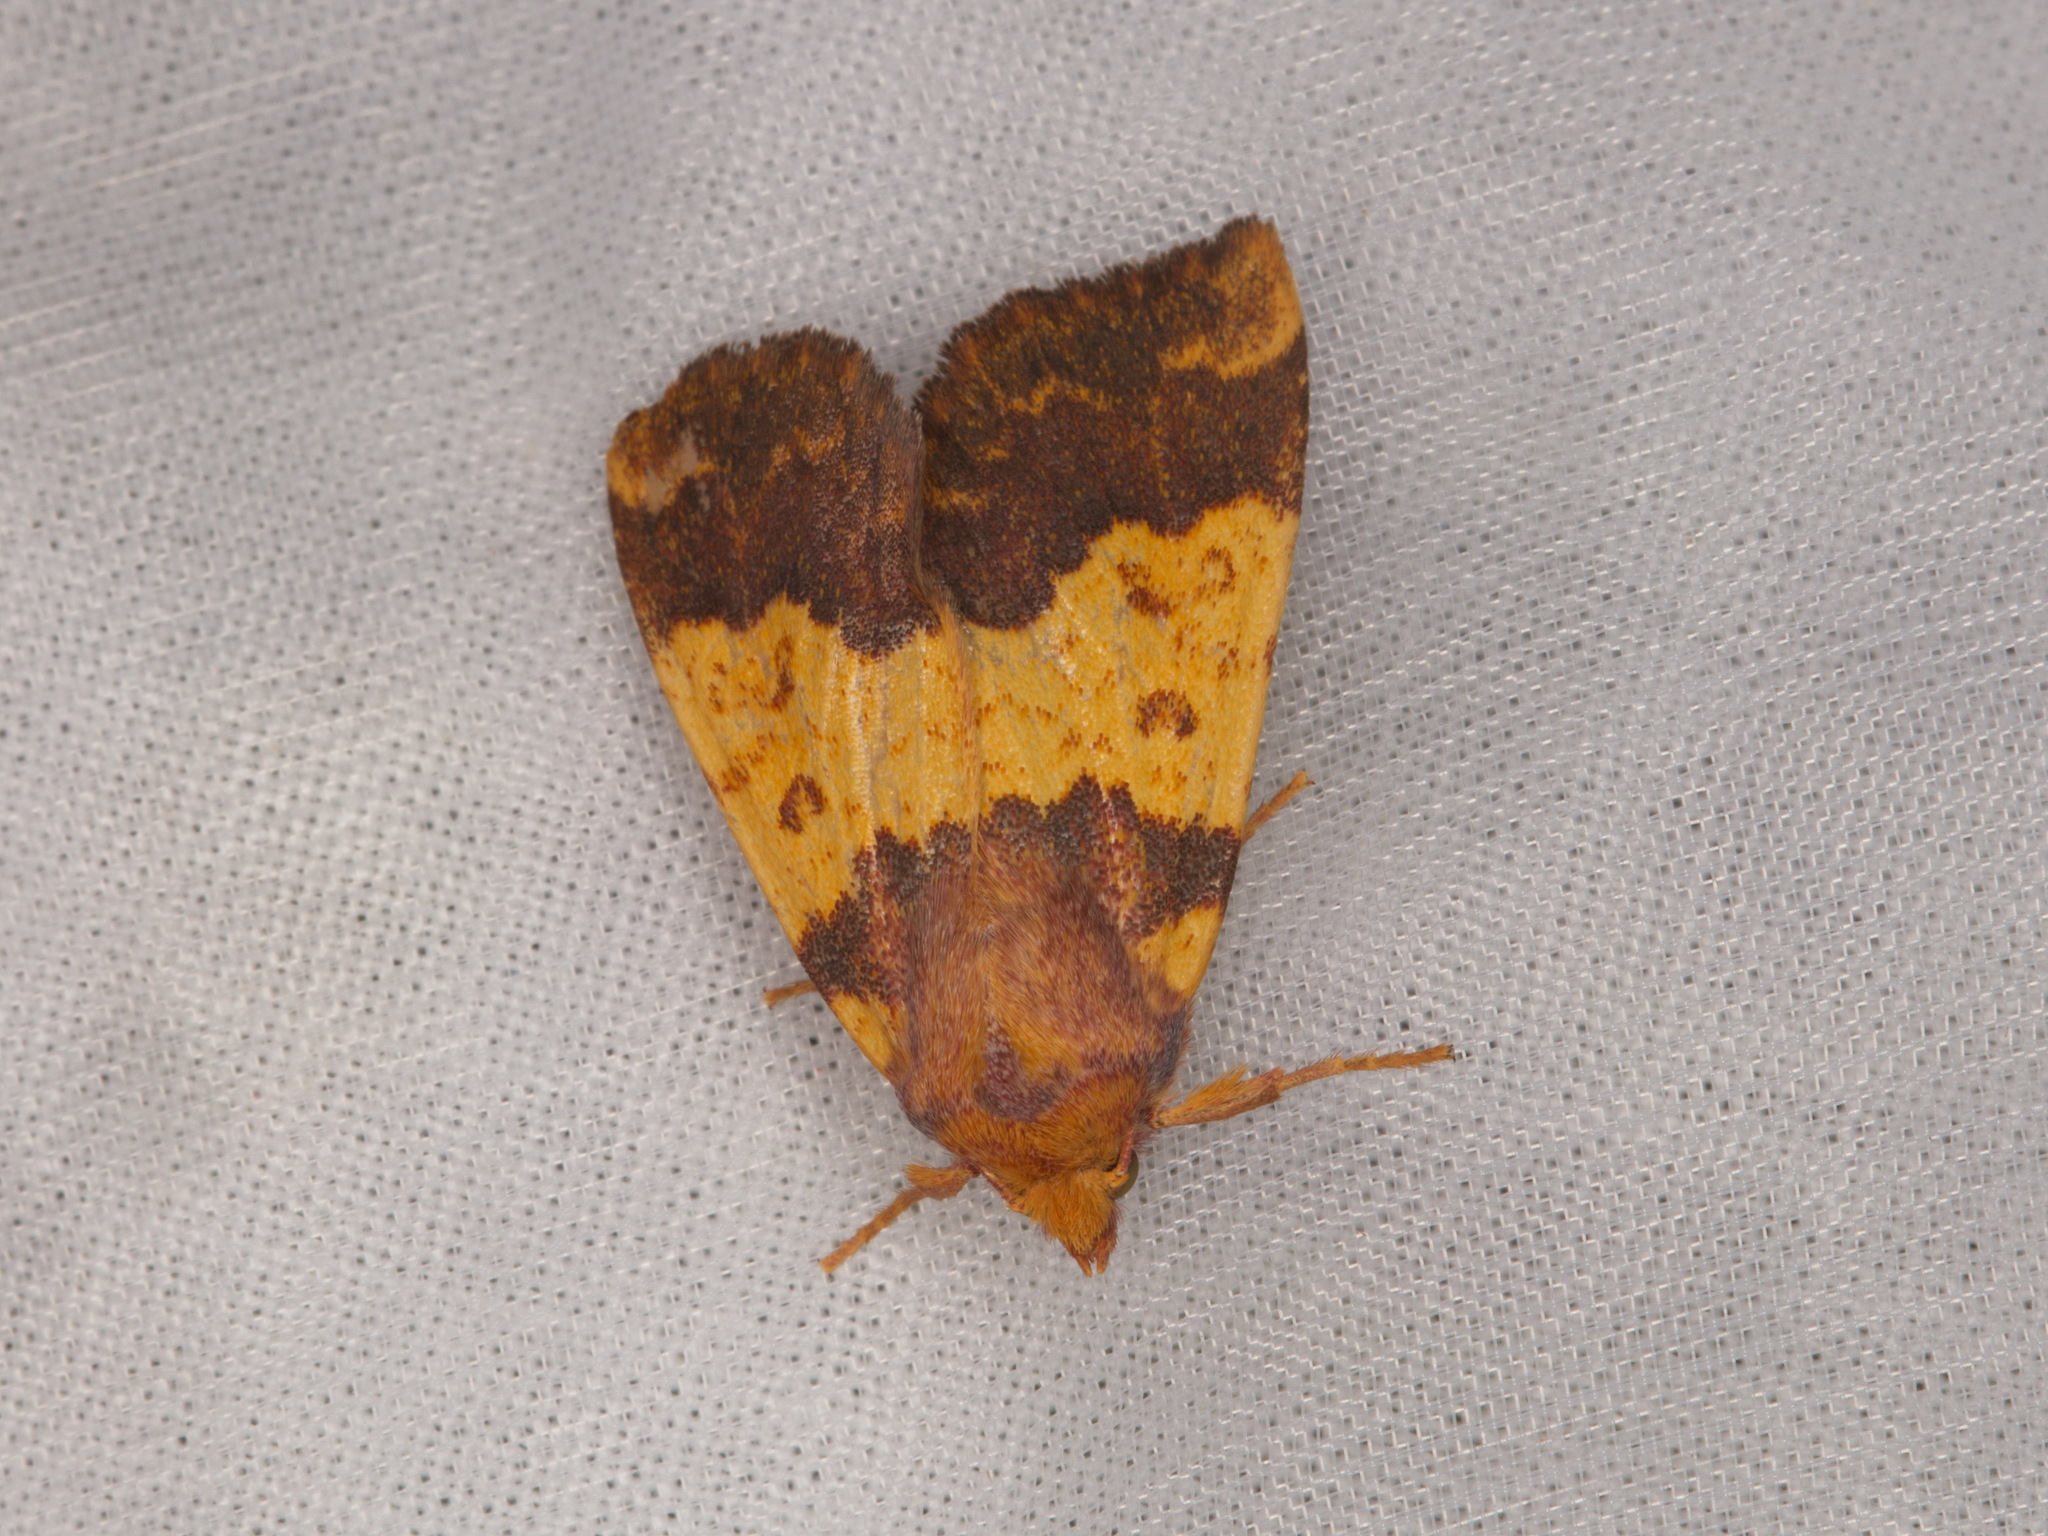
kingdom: Animalia
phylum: Arthropoda
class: Insecta
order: Lepidoptera
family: Noctuidae
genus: Tiliacea
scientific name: Tiliacea aurago
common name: Barred sallow
